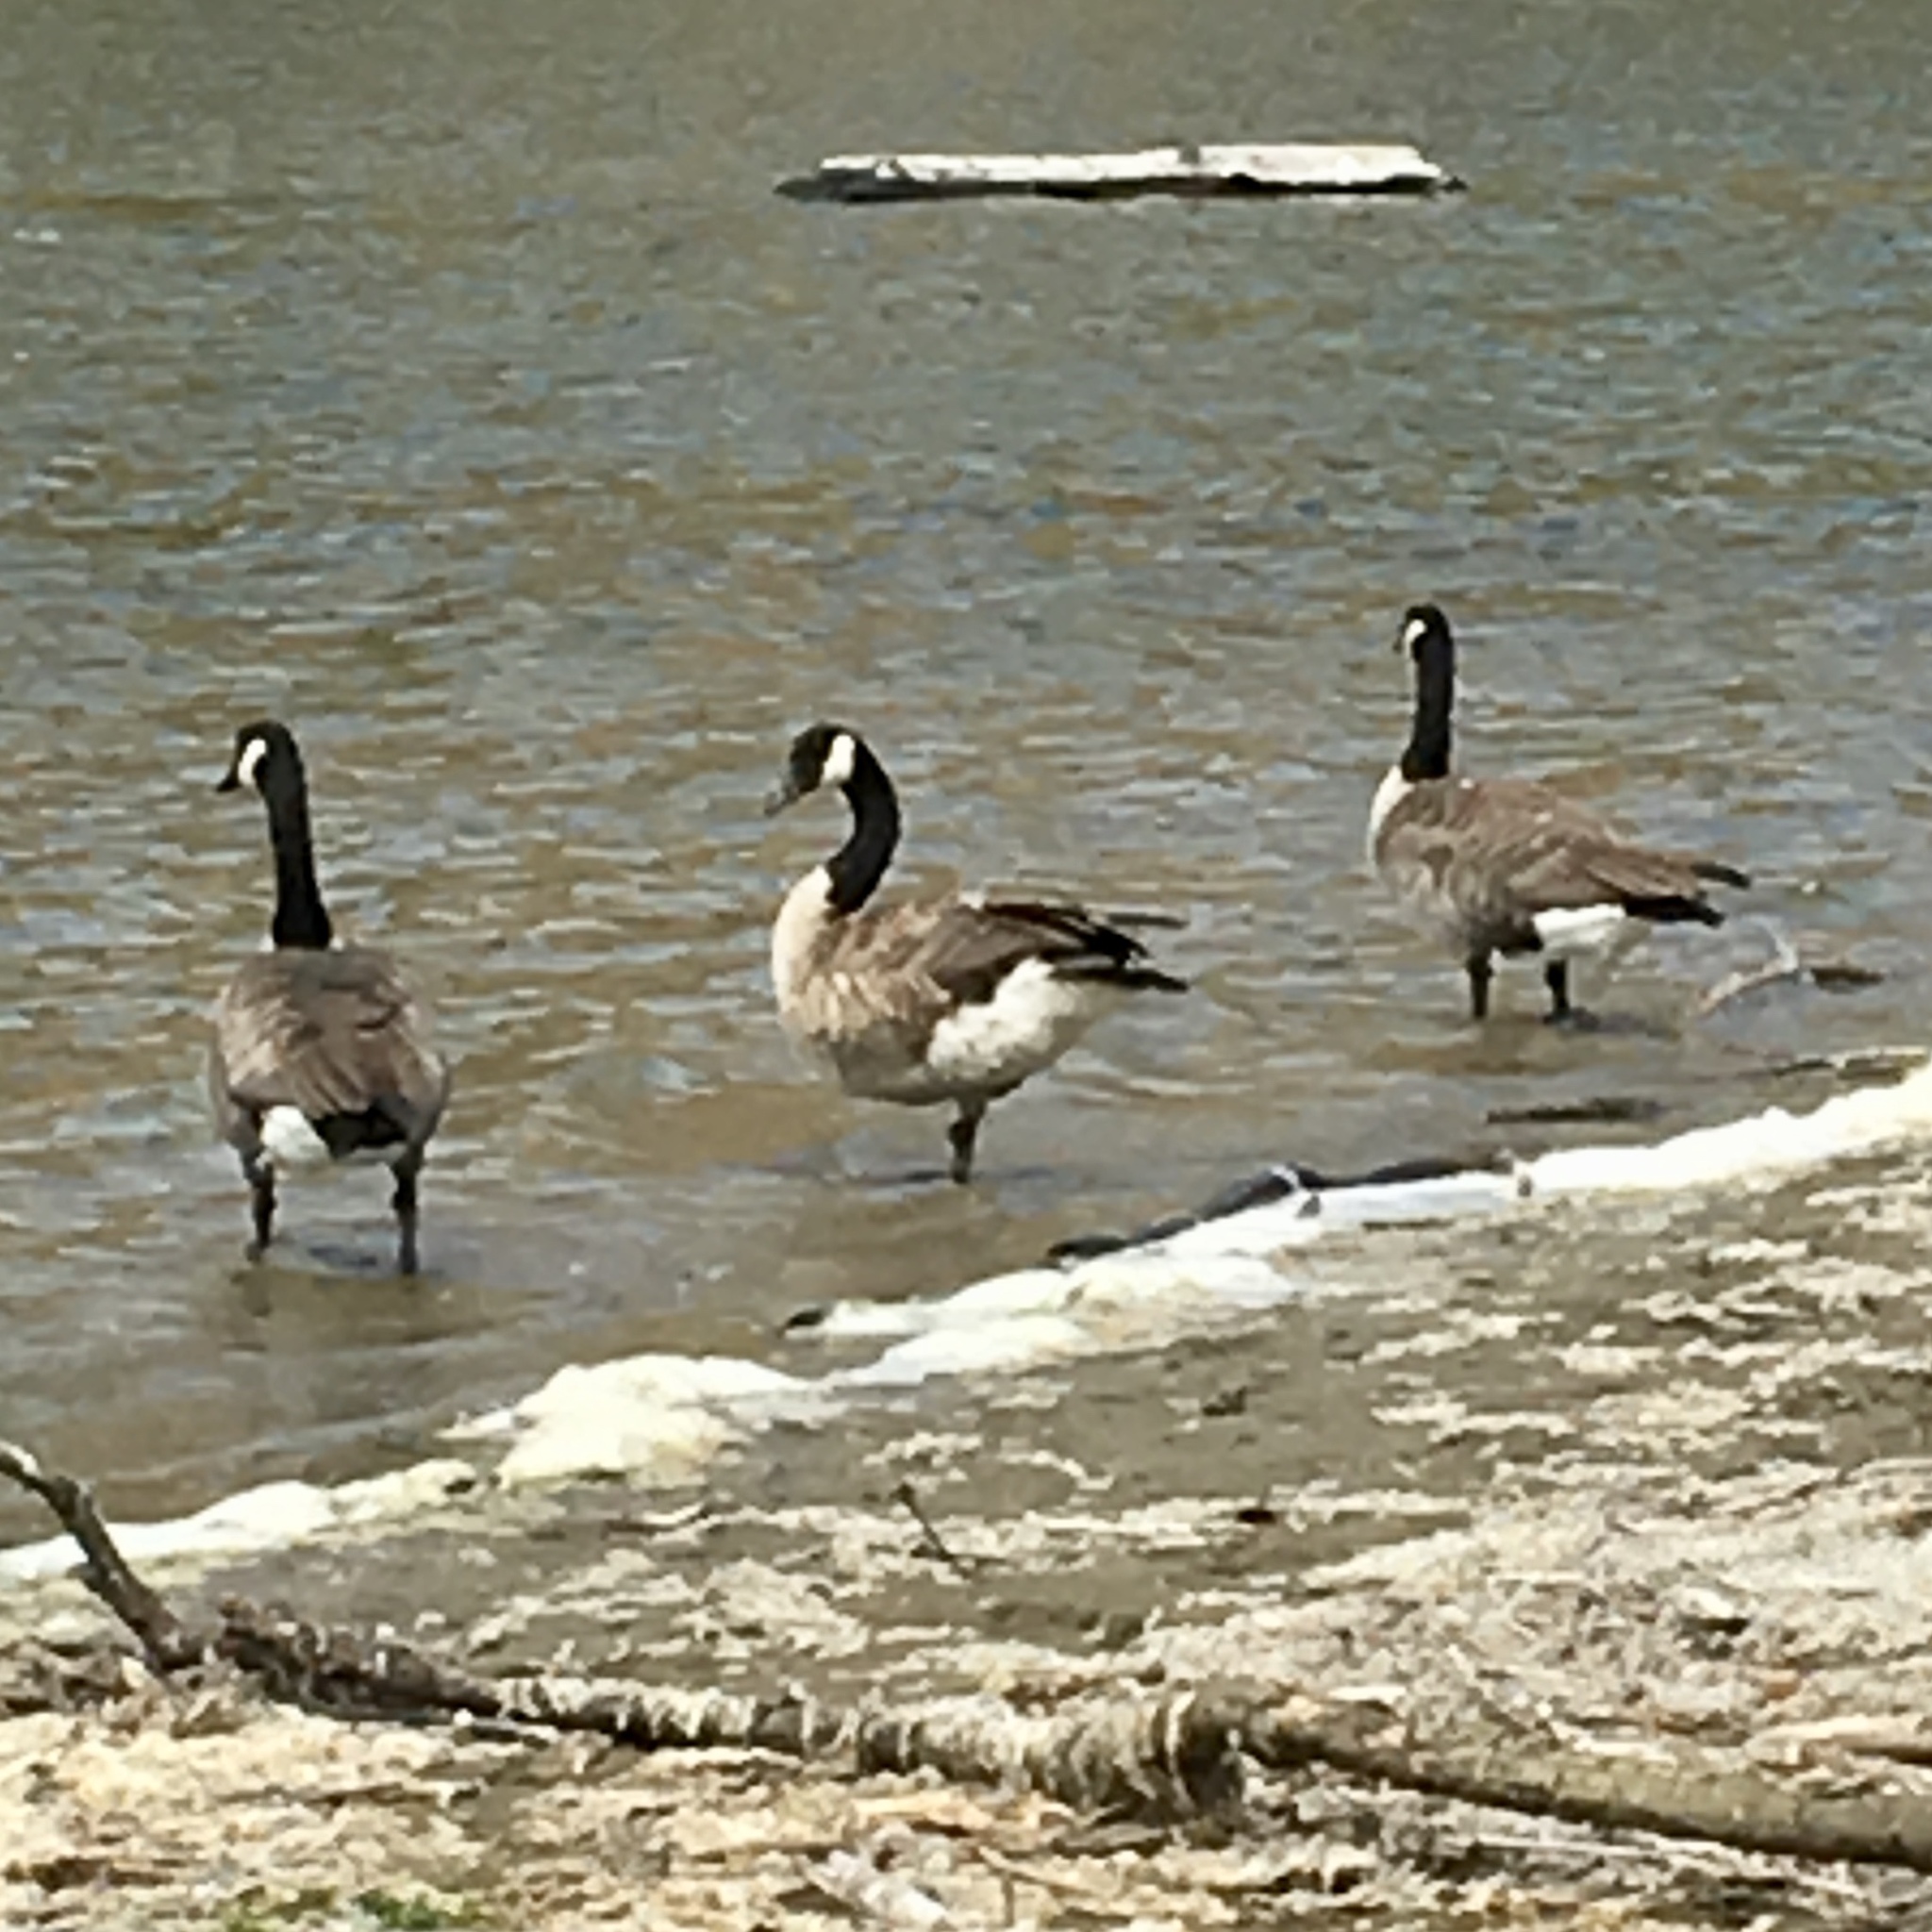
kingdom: Animalia
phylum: Chordata
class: Aves
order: Anseriformes
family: Anatidae
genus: Branta
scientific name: Branta canadensis
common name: Canada goose
